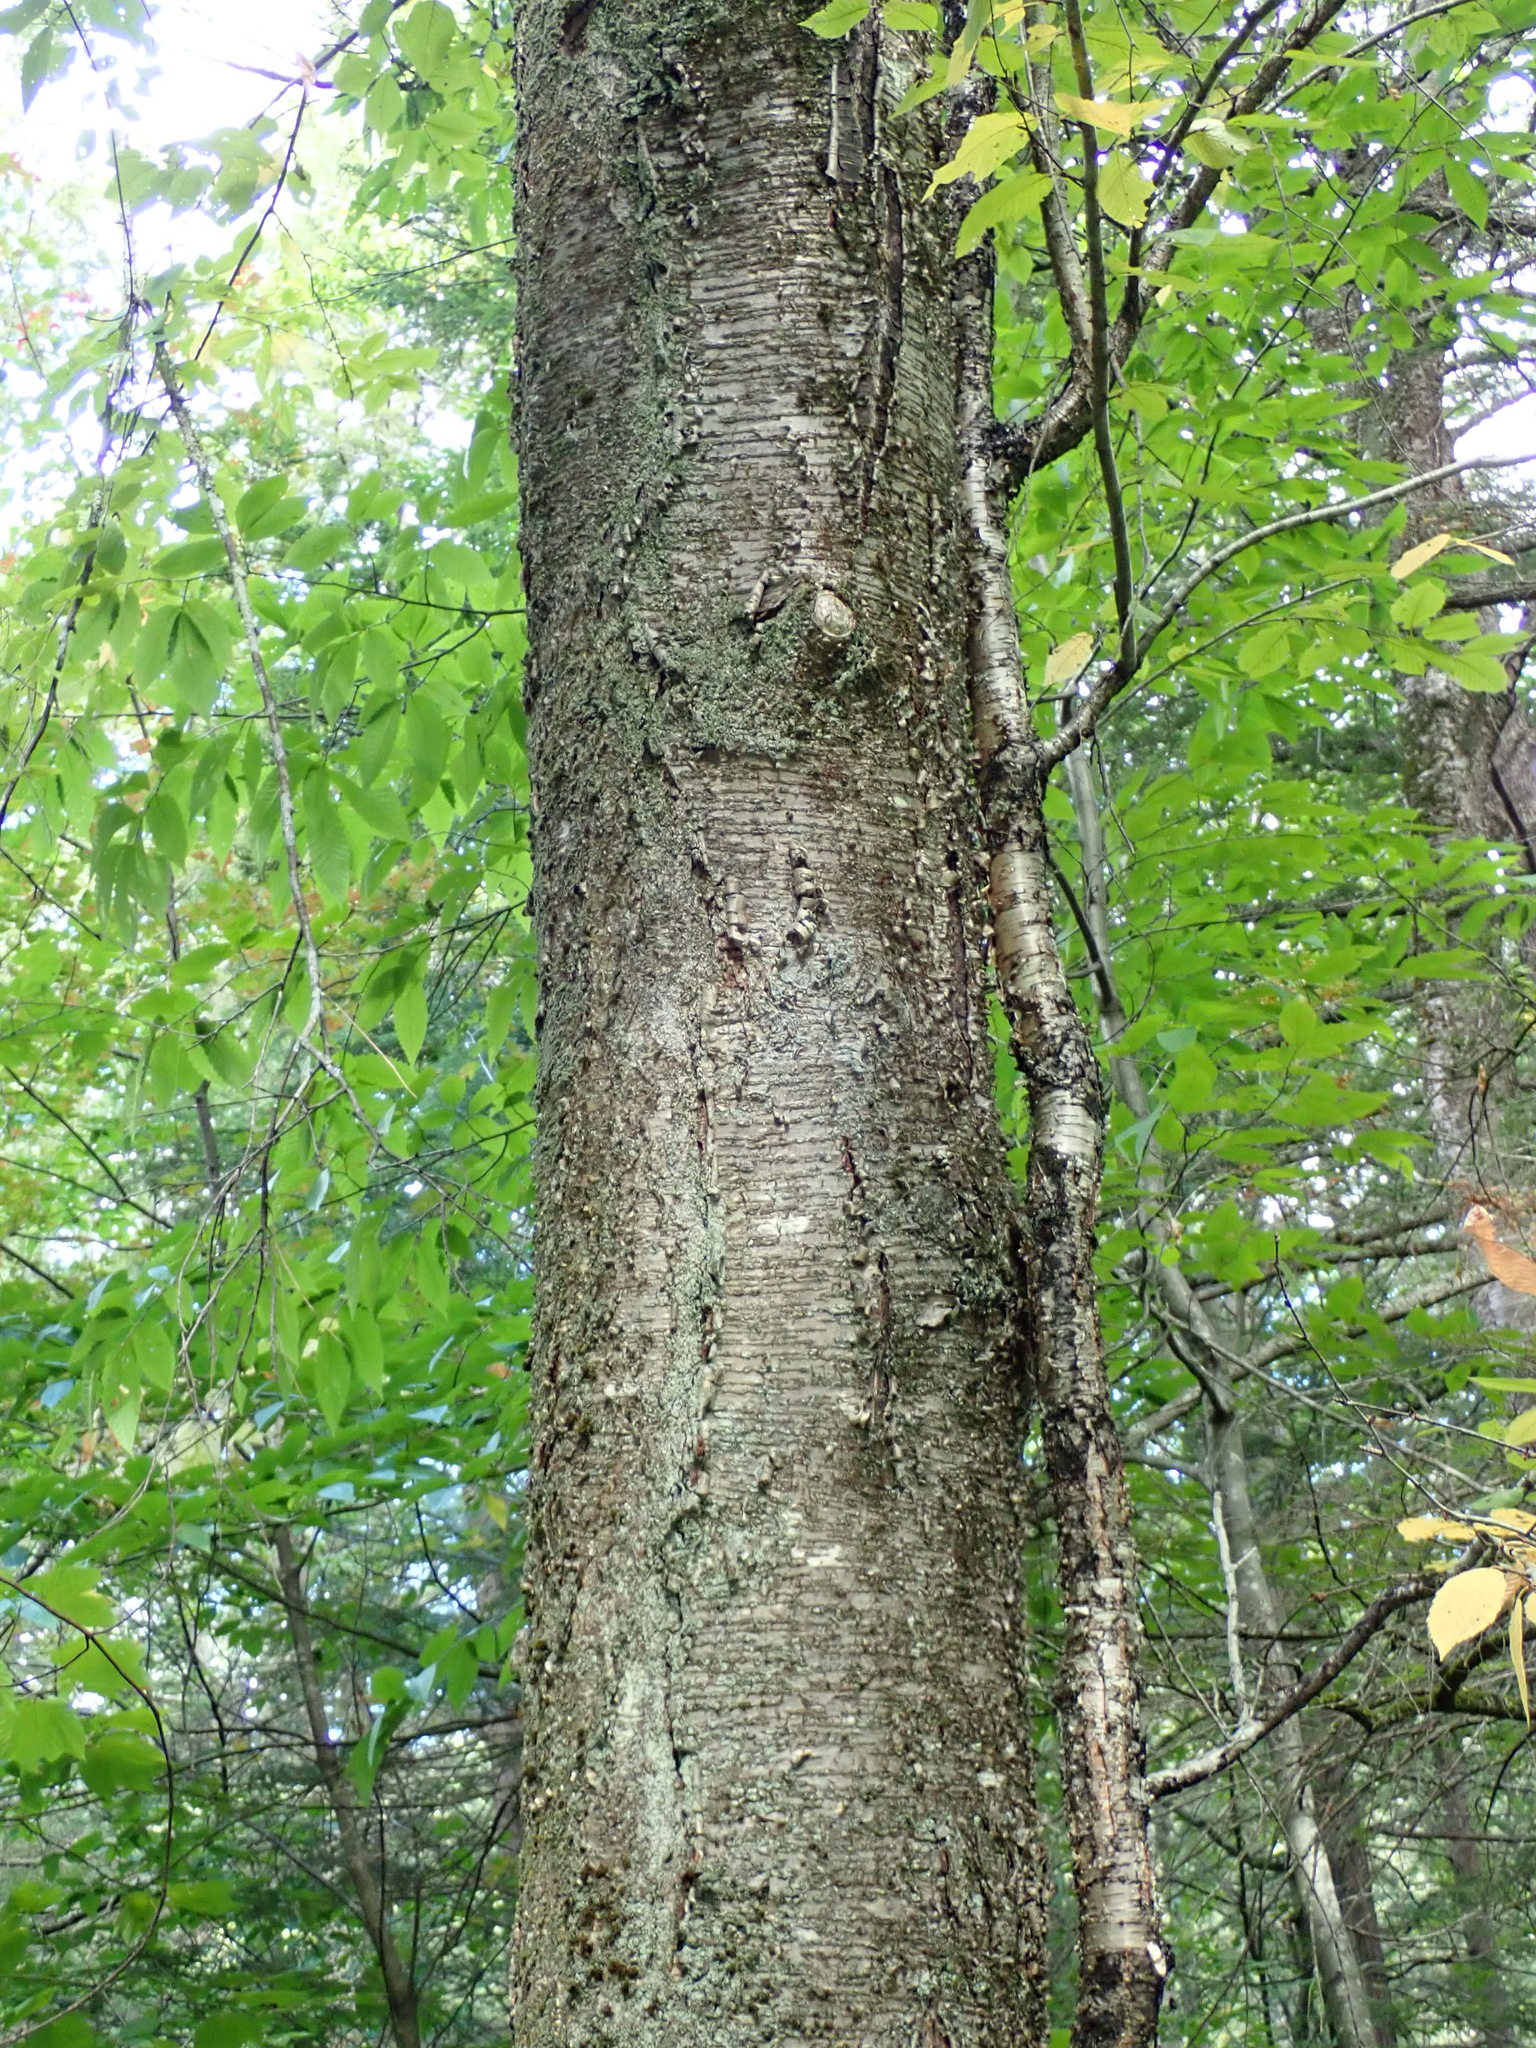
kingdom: Plantae
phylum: Tracheophyta
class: Magnoliopsida
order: Fagales
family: Betulaceae
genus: Betula
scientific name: Betula alleghaniensis
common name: Yellow birch
